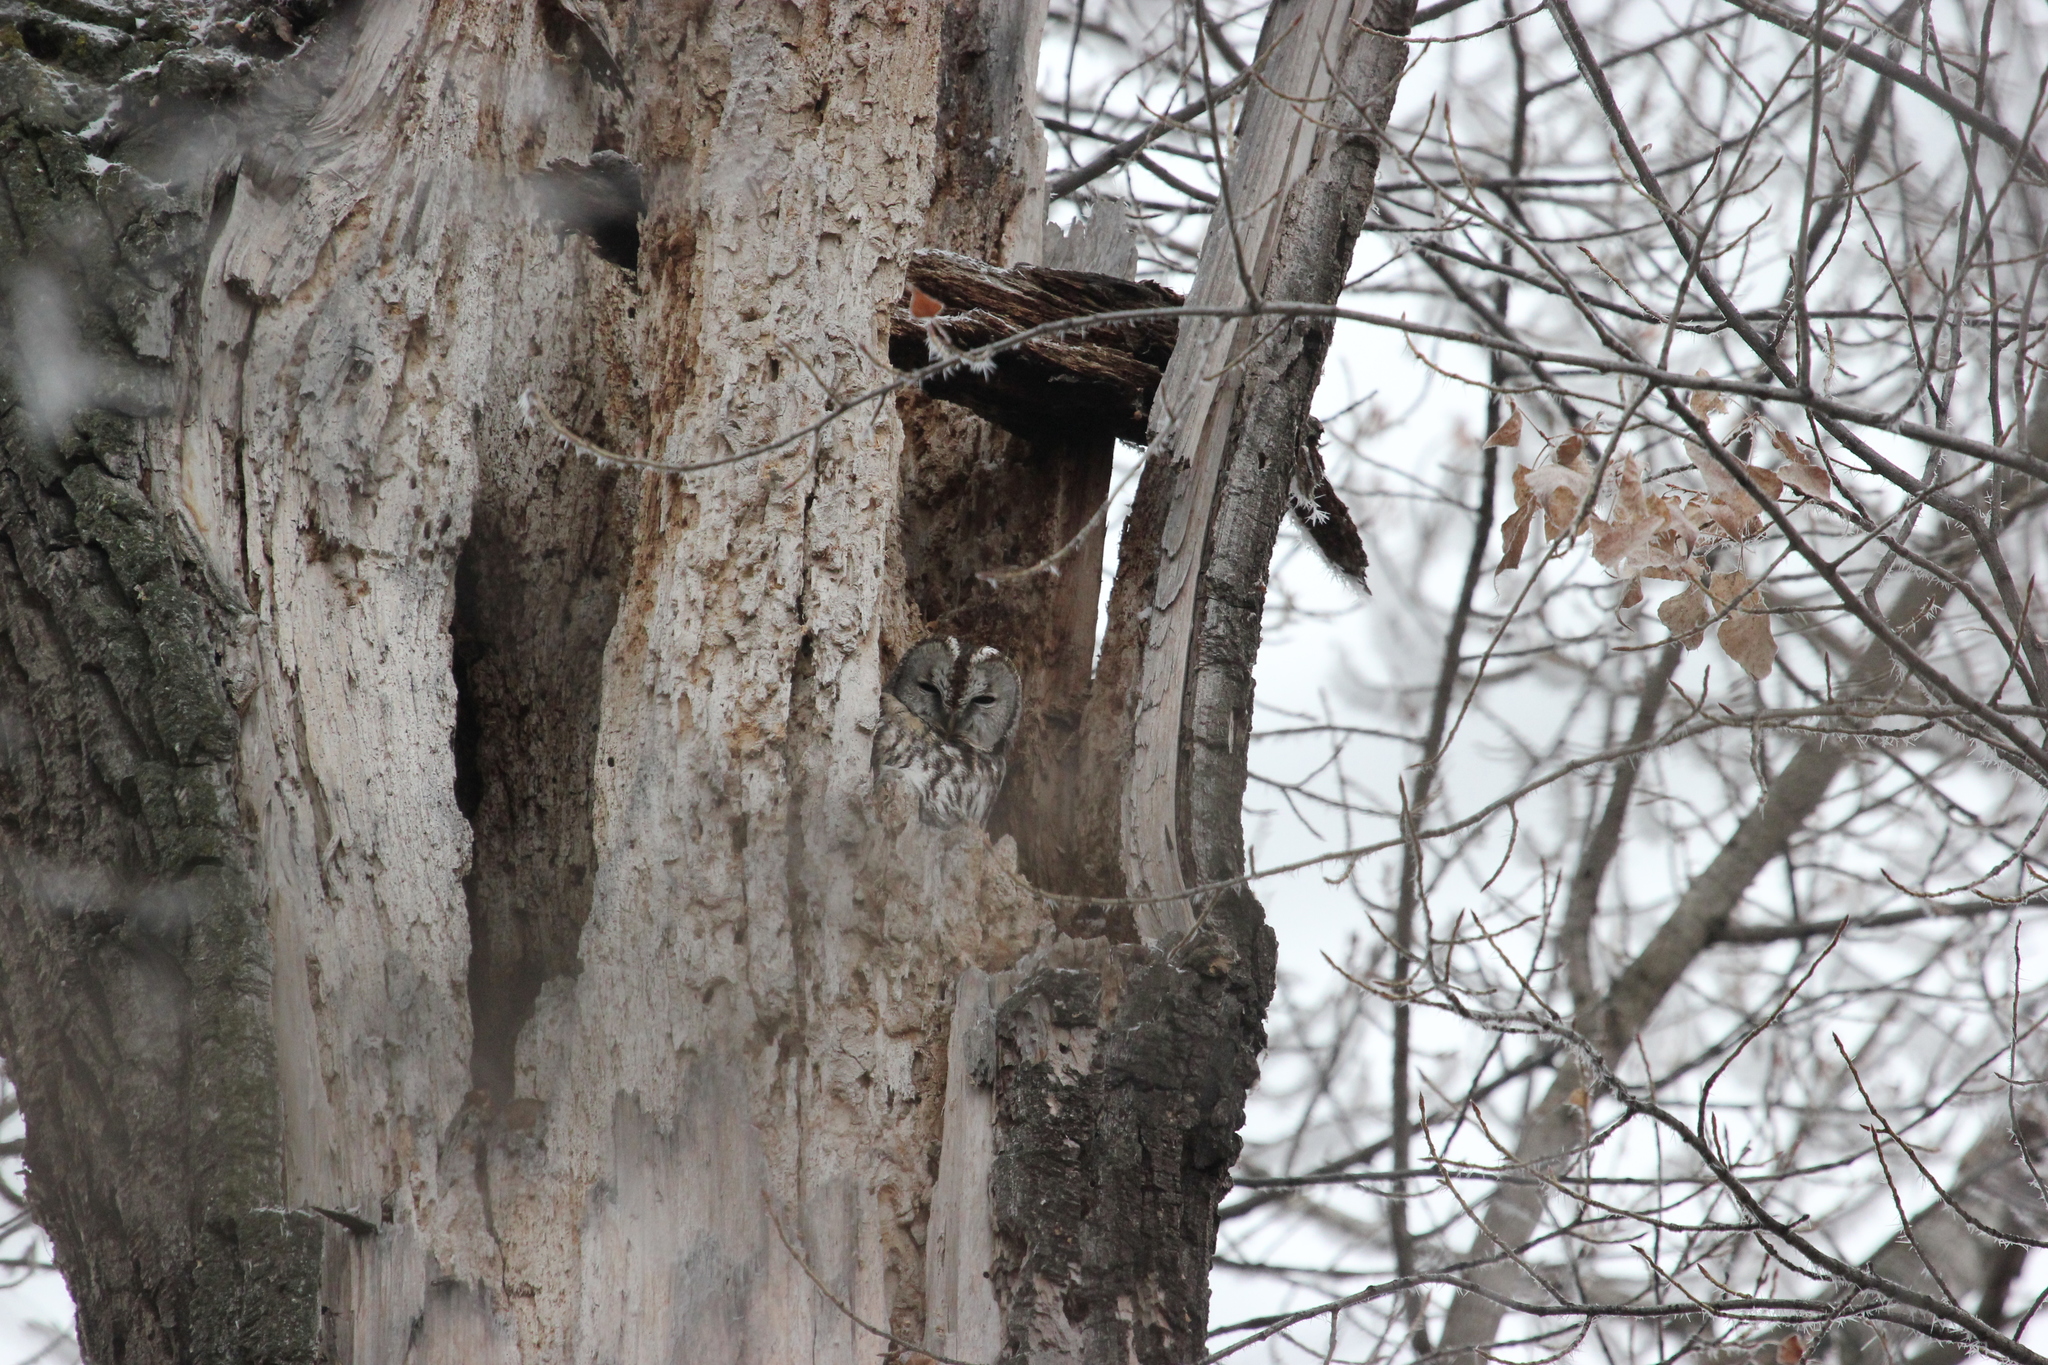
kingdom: Animalia
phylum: Chordata
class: Aves
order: Strigiformes
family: Strigidae
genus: Strix
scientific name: Strix aluco
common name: Tawny owl
